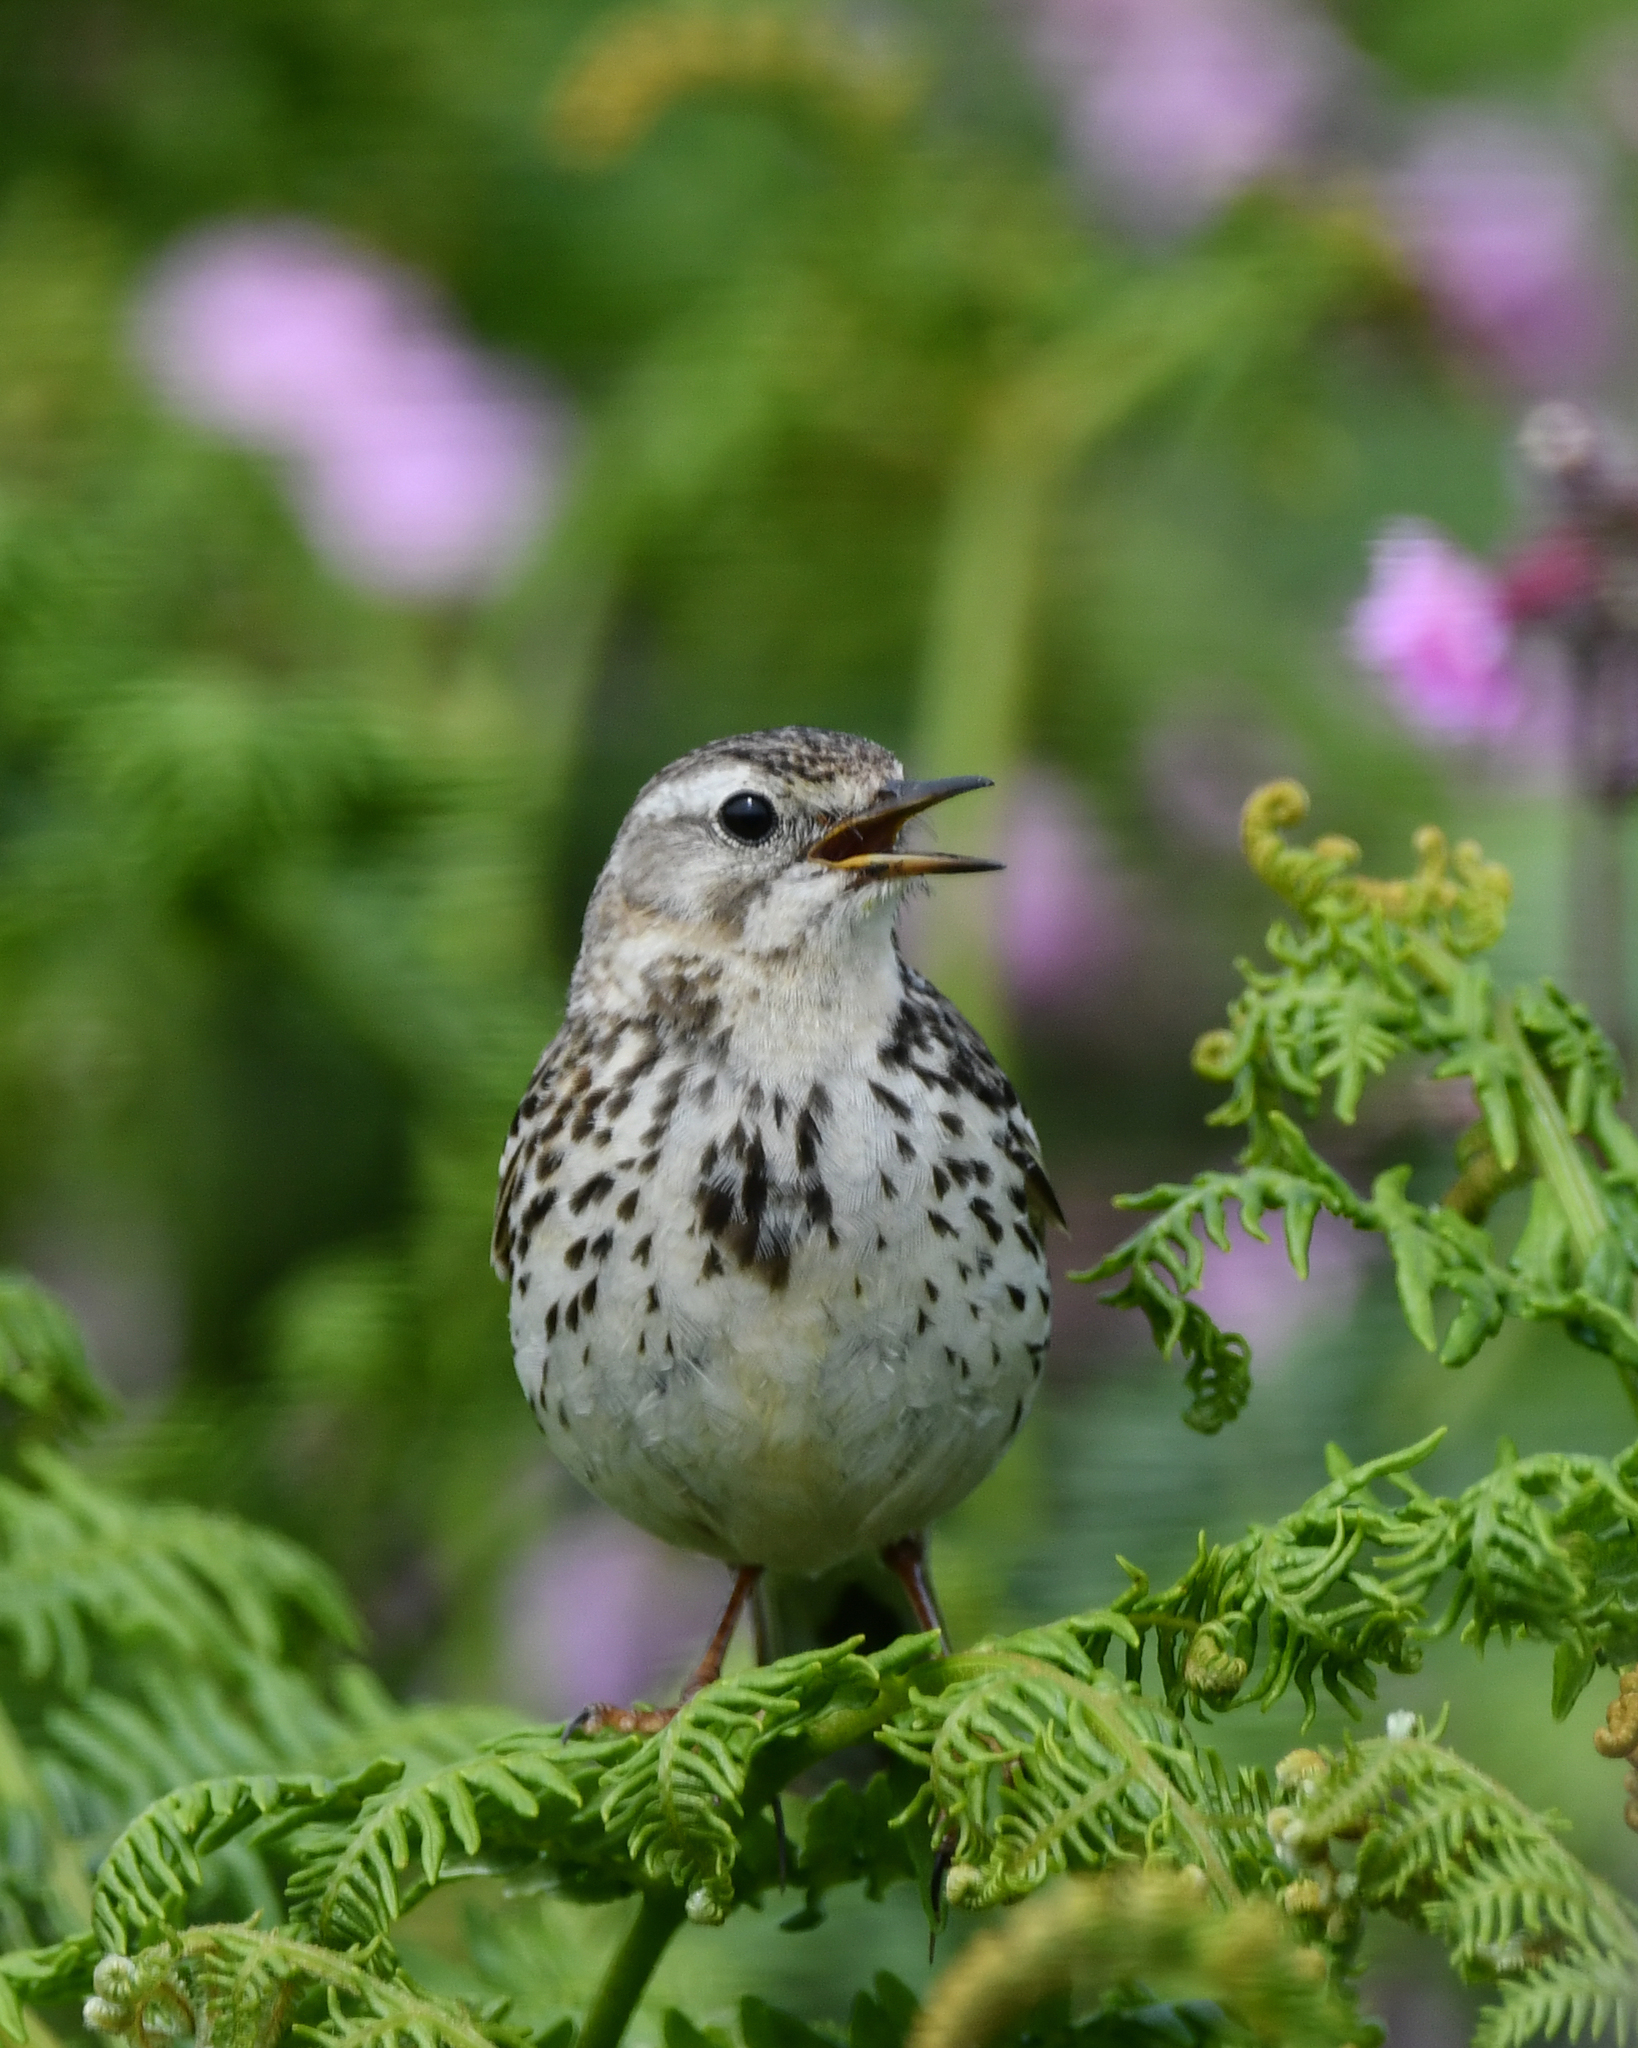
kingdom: Animalia
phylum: Chordata
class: Aves
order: Passeriformes
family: Motacillidae
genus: Anthus
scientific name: Anthus pratensis
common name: Meadow pipit
